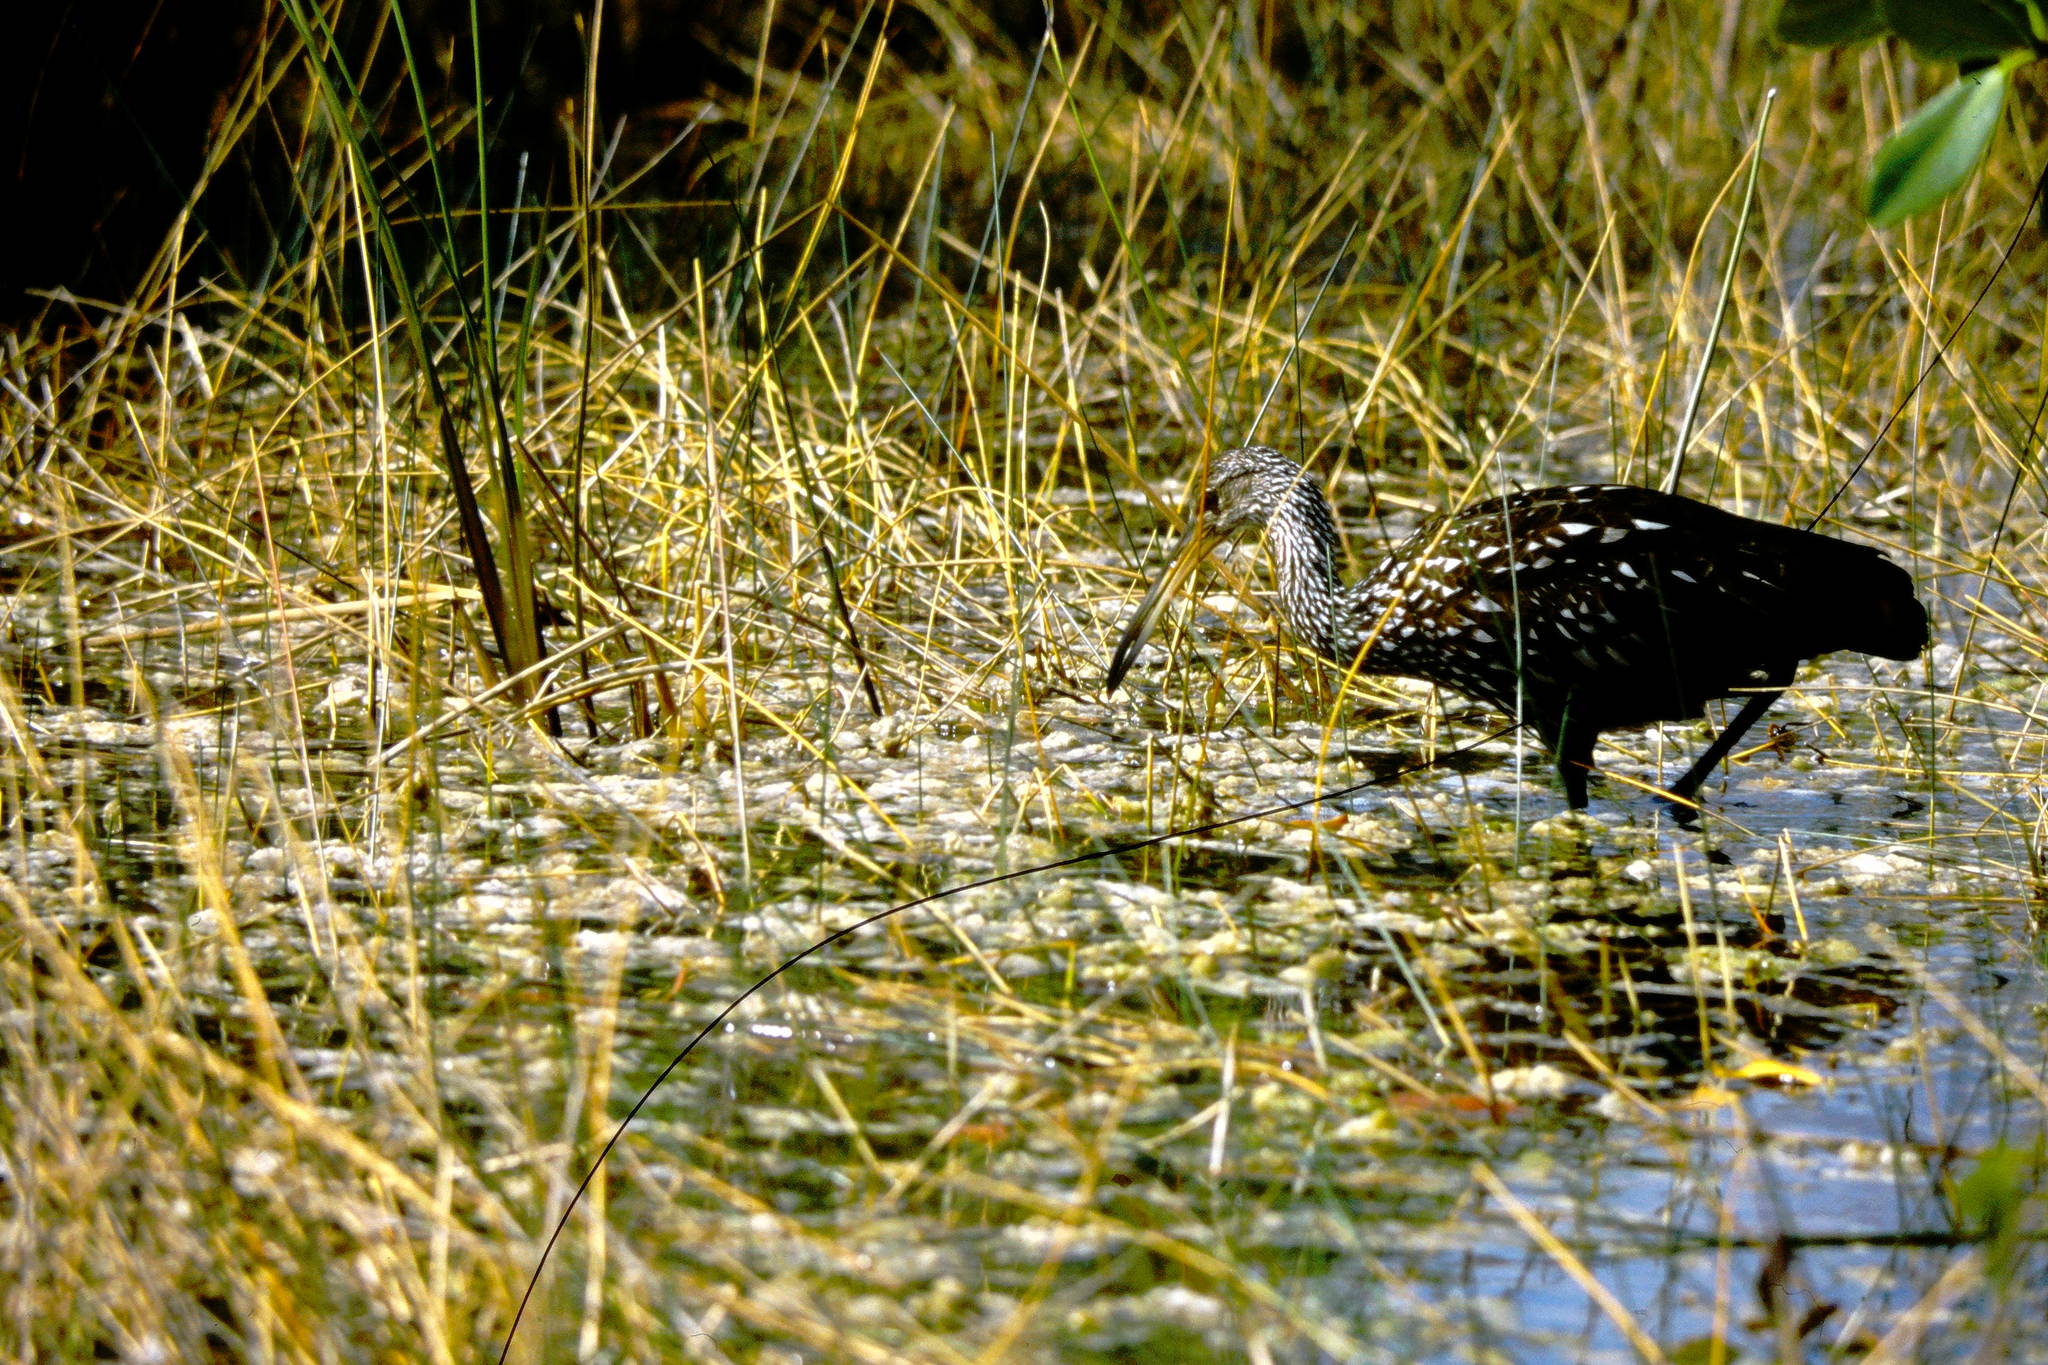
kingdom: Animalia
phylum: Chordata
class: Aves
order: Gruiformes
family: Aramidae
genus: Aramus
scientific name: Aramus guarauna
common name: Limpkin
